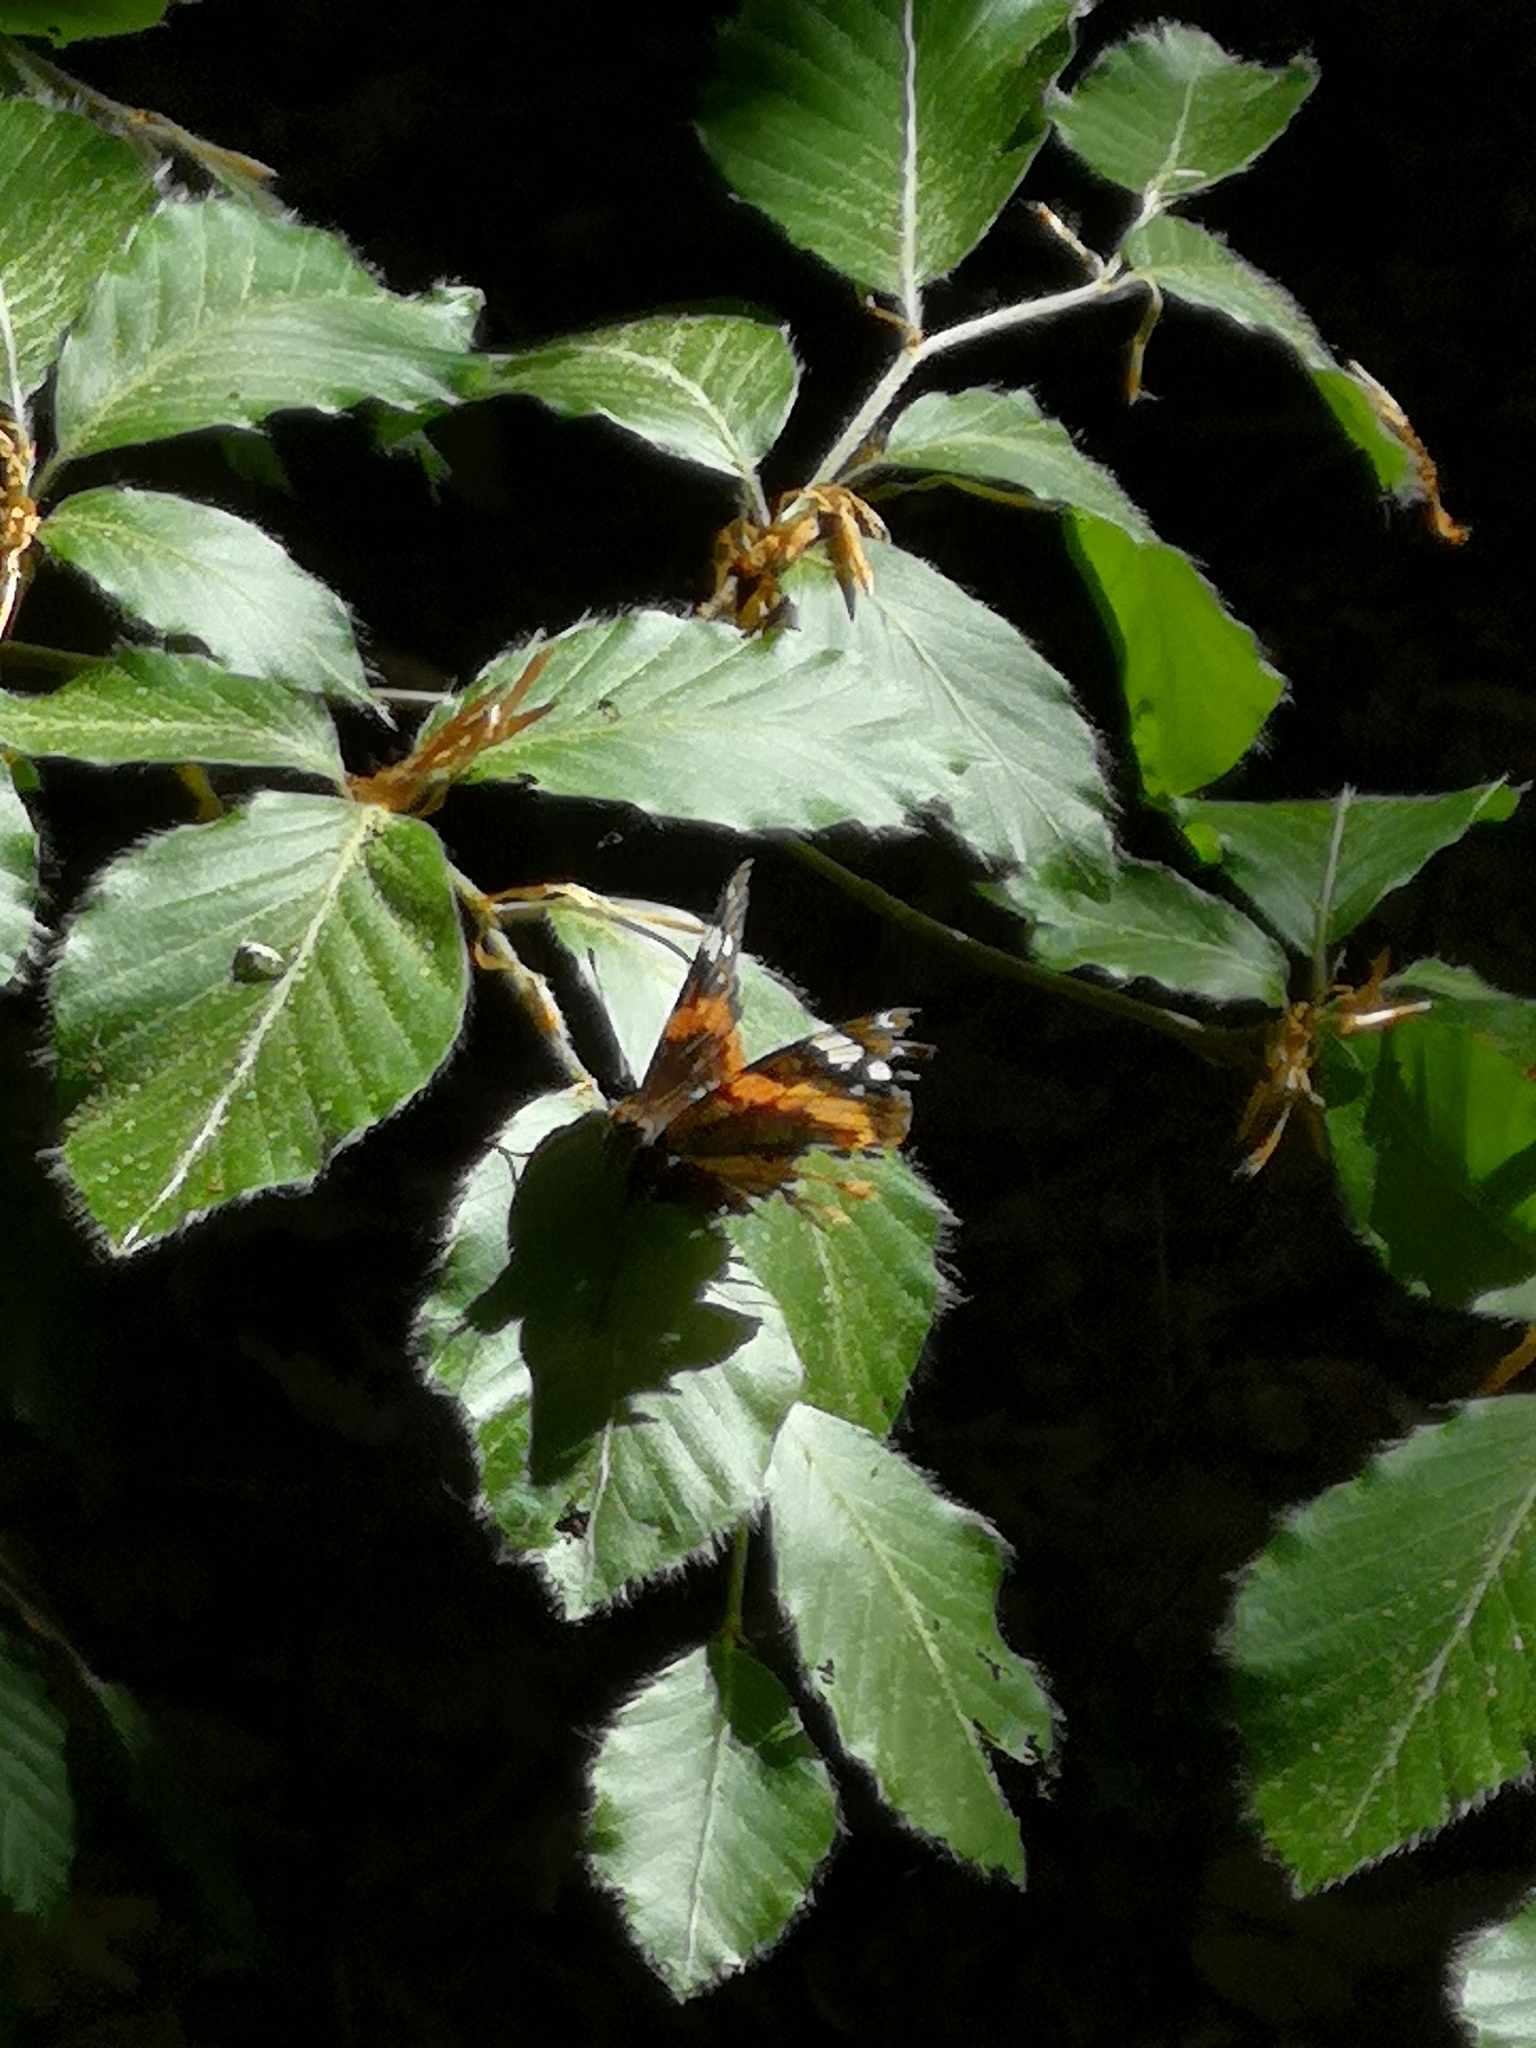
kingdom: Animalia
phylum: Arthropoda
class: Insecta
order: Lepidoptera
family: Nymphalidae
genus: Vanessa
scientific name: Vanessa atalanta
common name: Red admiral
